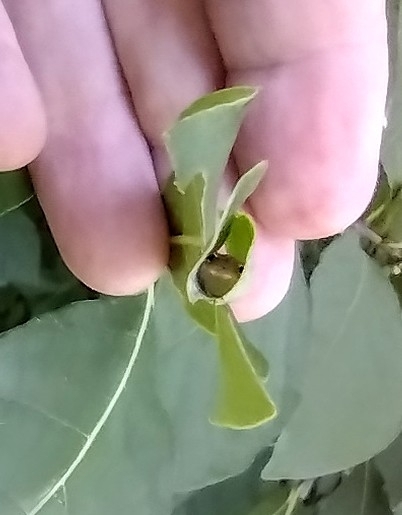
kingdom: Animalia
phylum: Arthropoda
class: Insecta
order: Lepidoptera
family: Papilionidae
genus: Papilio
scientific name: Papilio troilus
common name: Spicebush swallowtail
